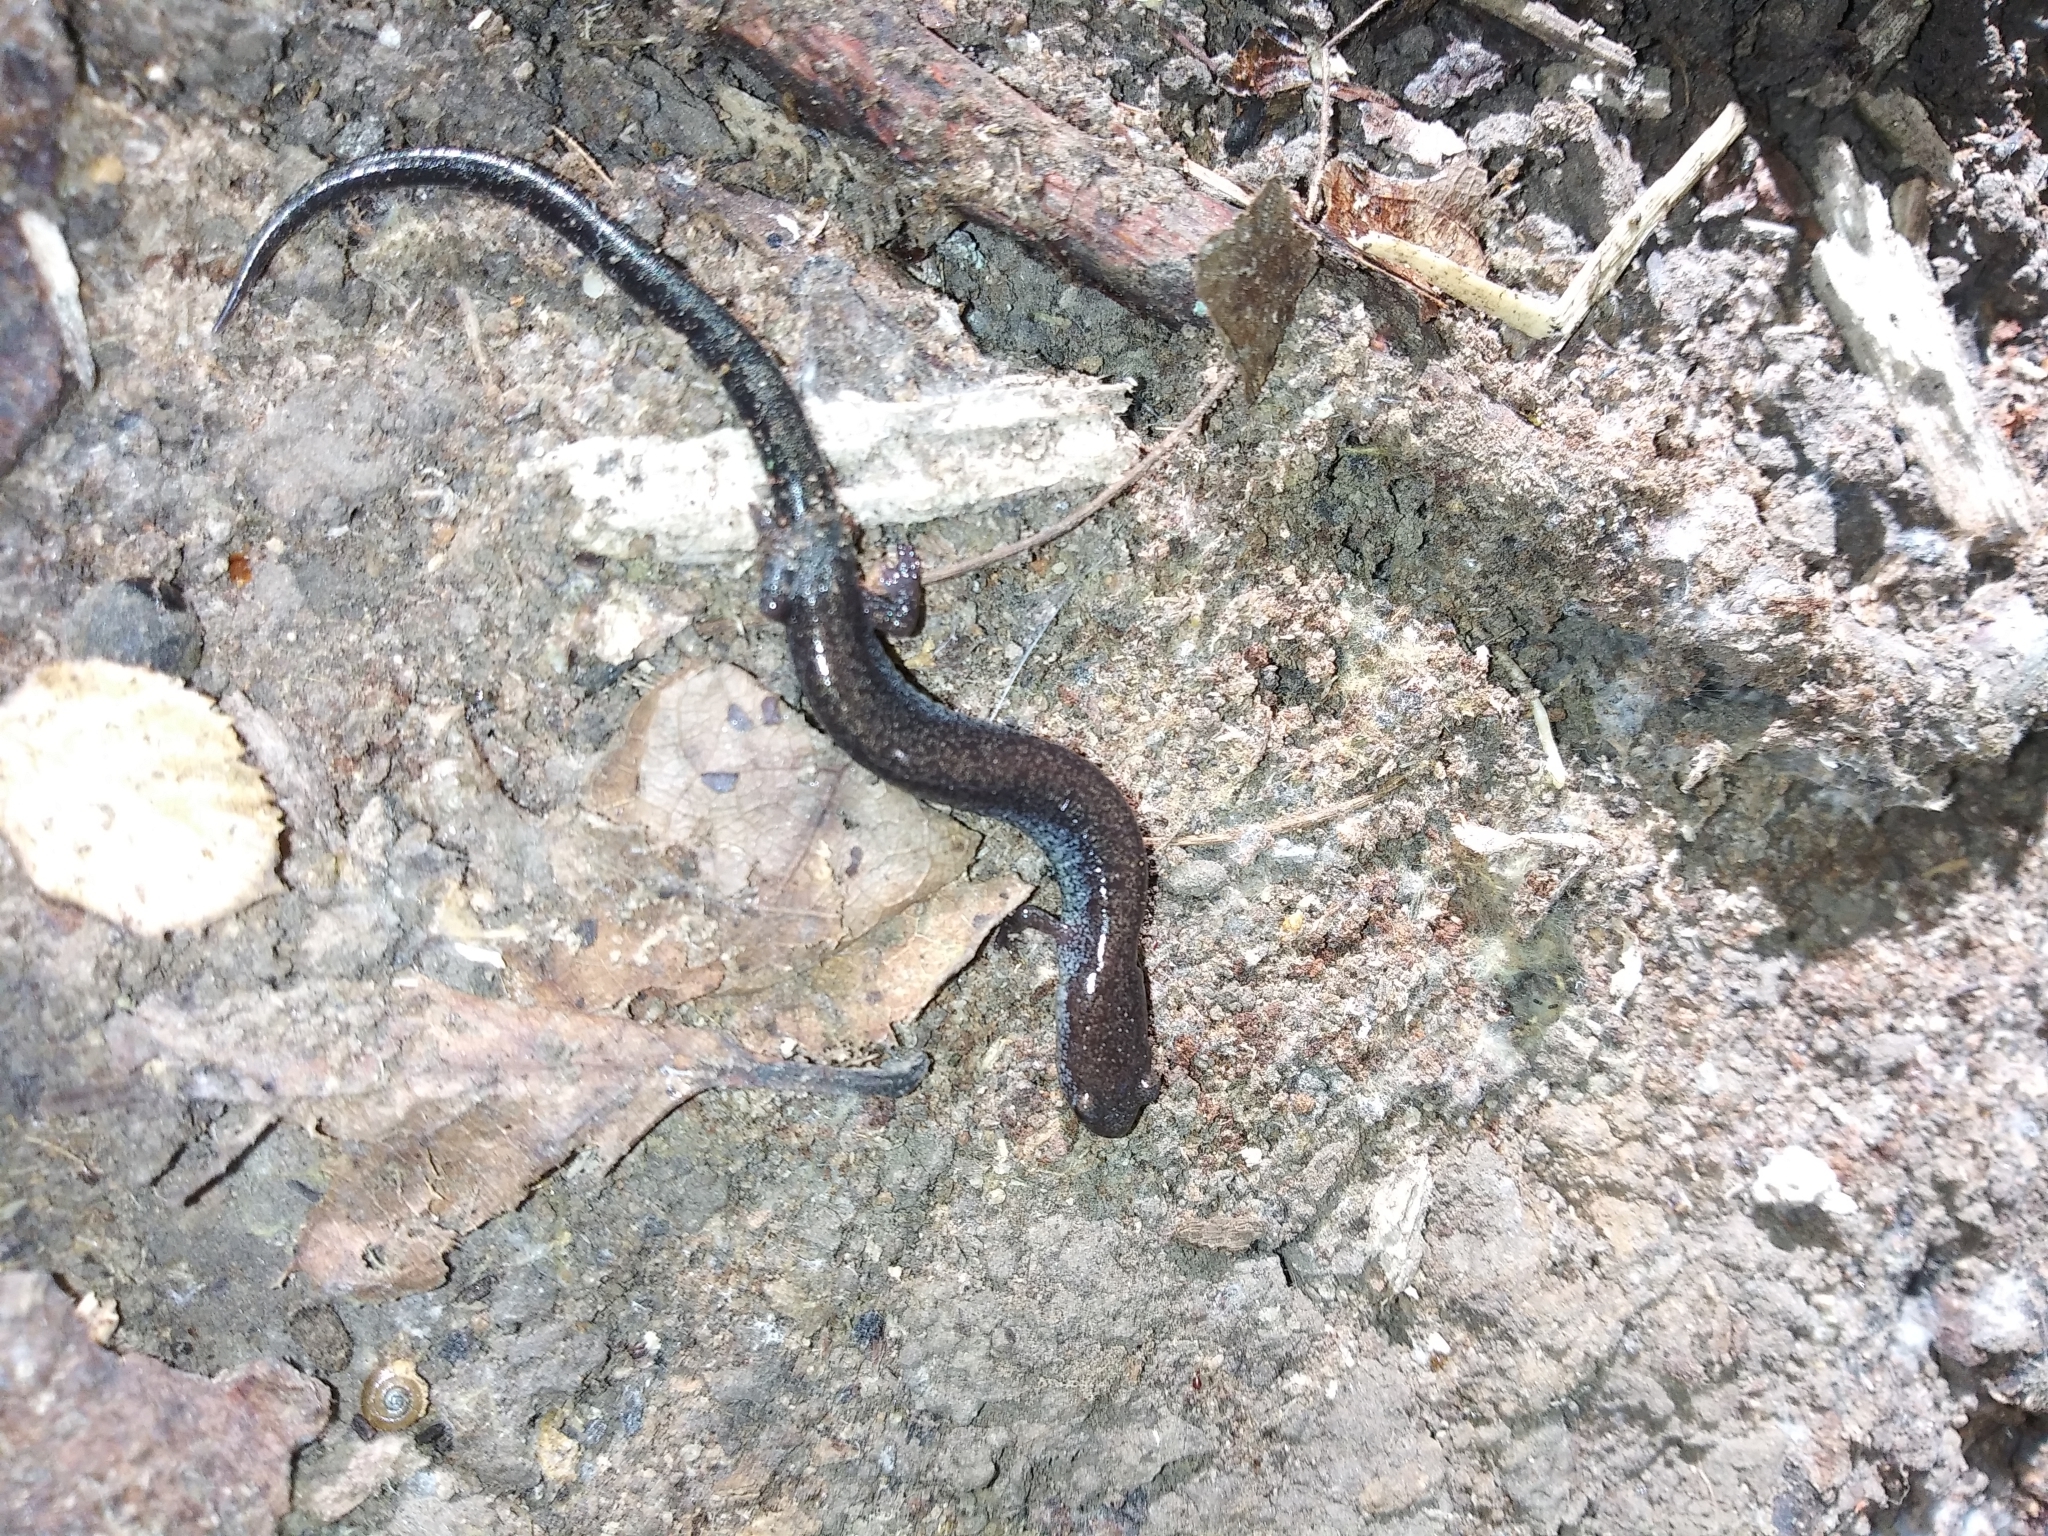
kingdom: Animalia
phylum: Chordata
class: Amphibia
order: Caudata
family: Plethodontidae
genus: Plethodon
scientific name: Plethodon electromorphus
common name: Northern ravine salamander
